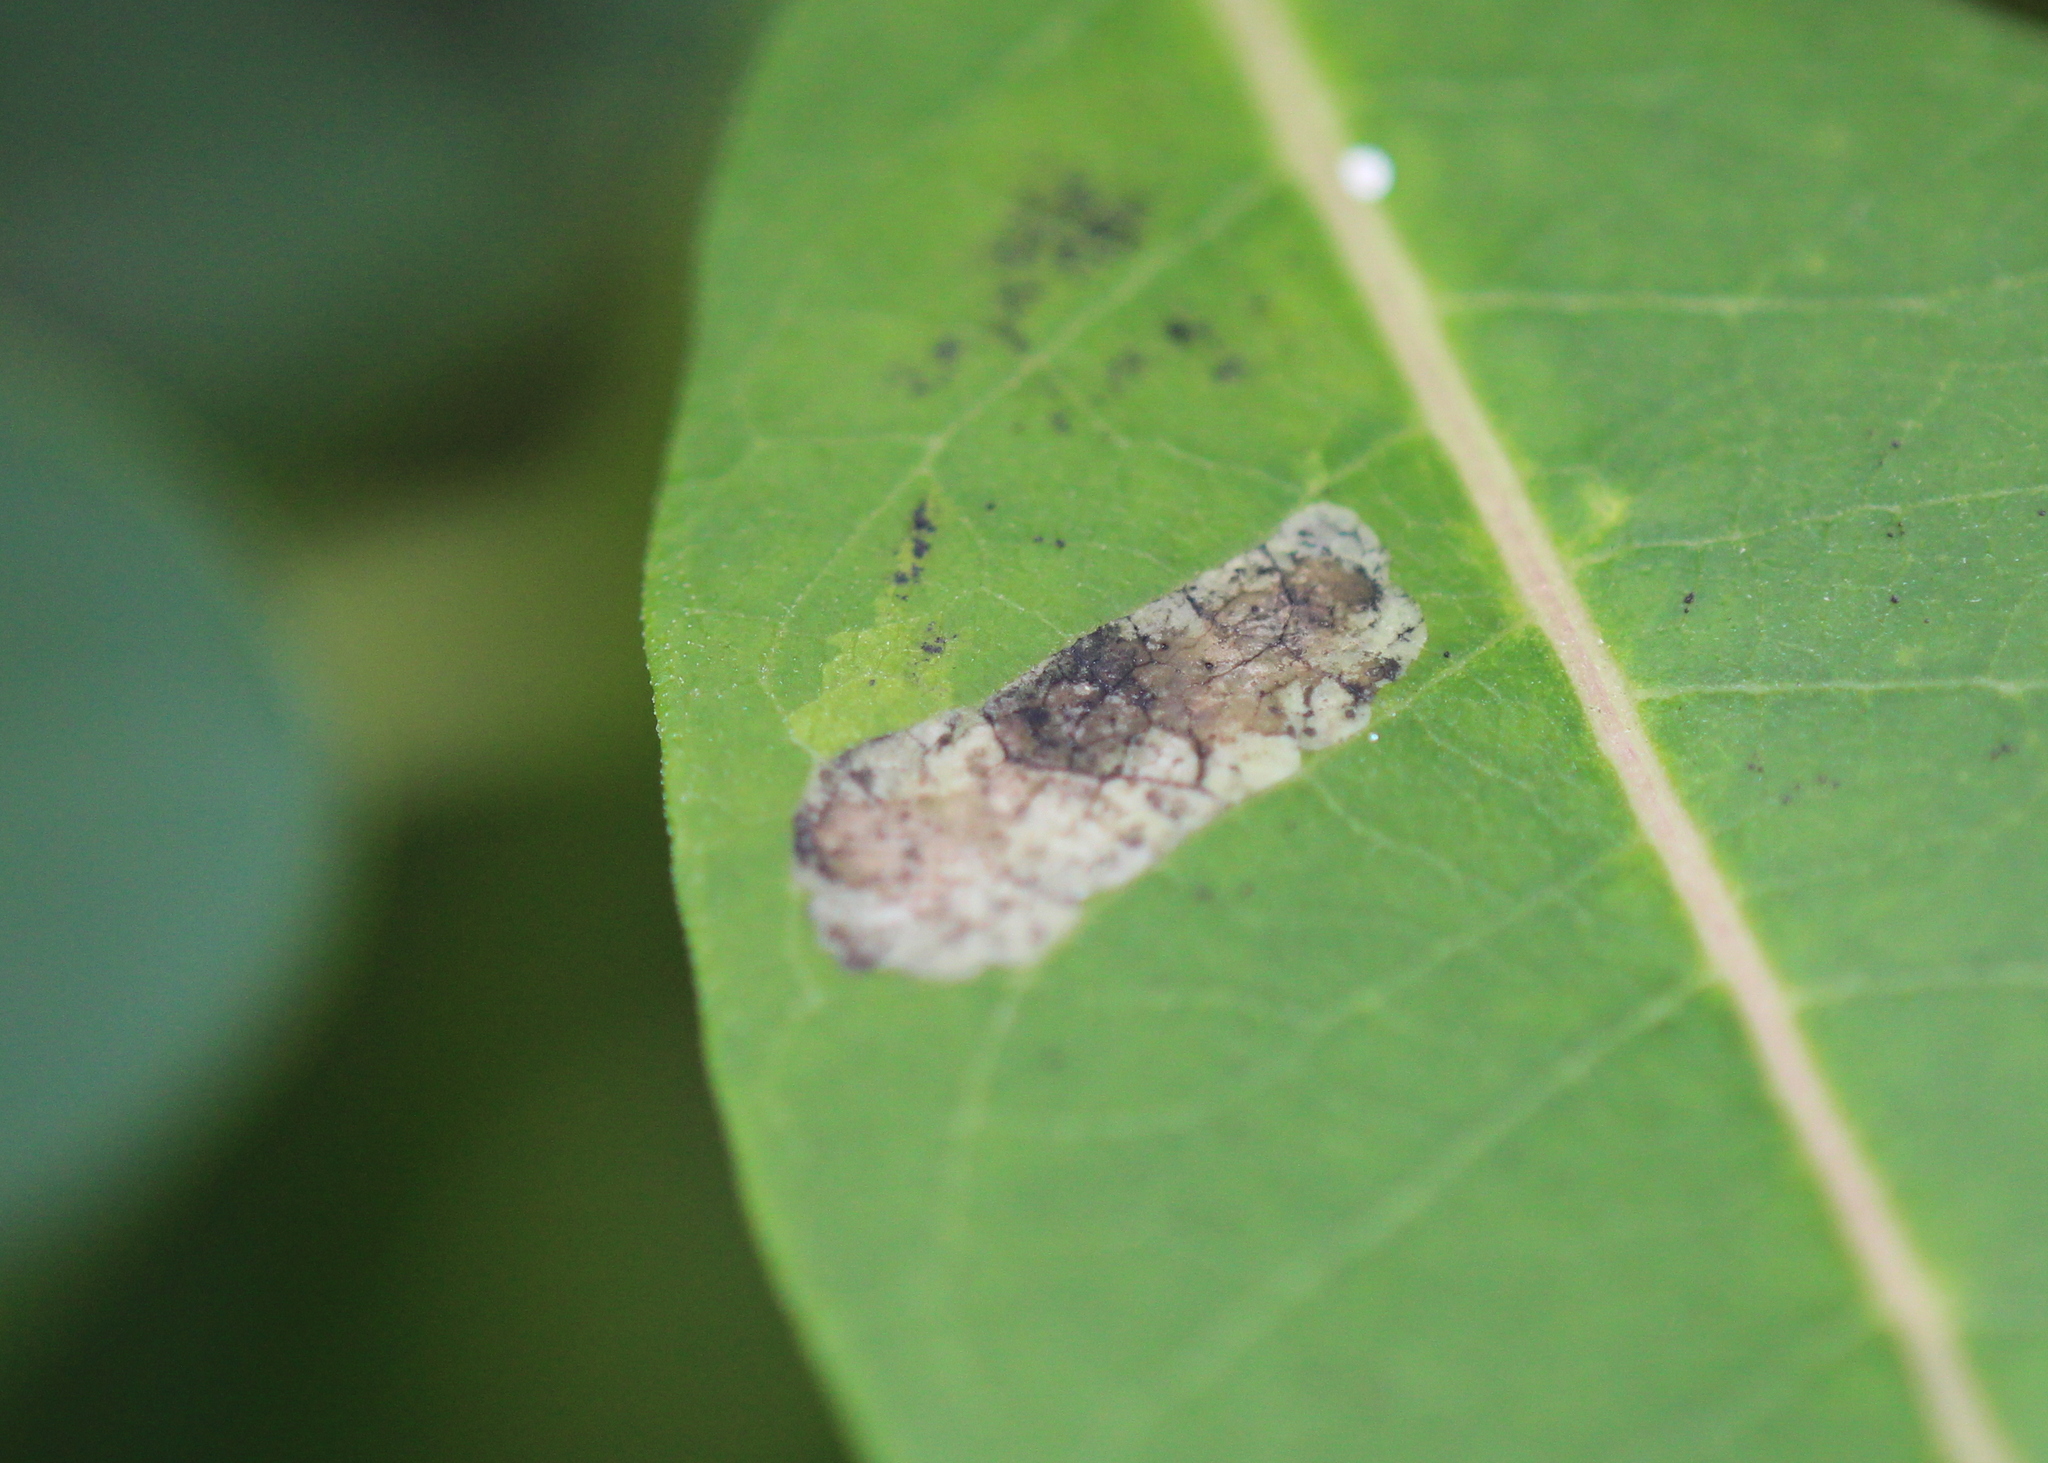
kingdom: Animalia
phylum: Arthropoda
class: Insecta
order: Diptera
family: Agromyzidae
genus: Liriomyza
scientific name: Liriomyza asclepiadis
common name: Milkweed leaf-miner fly
